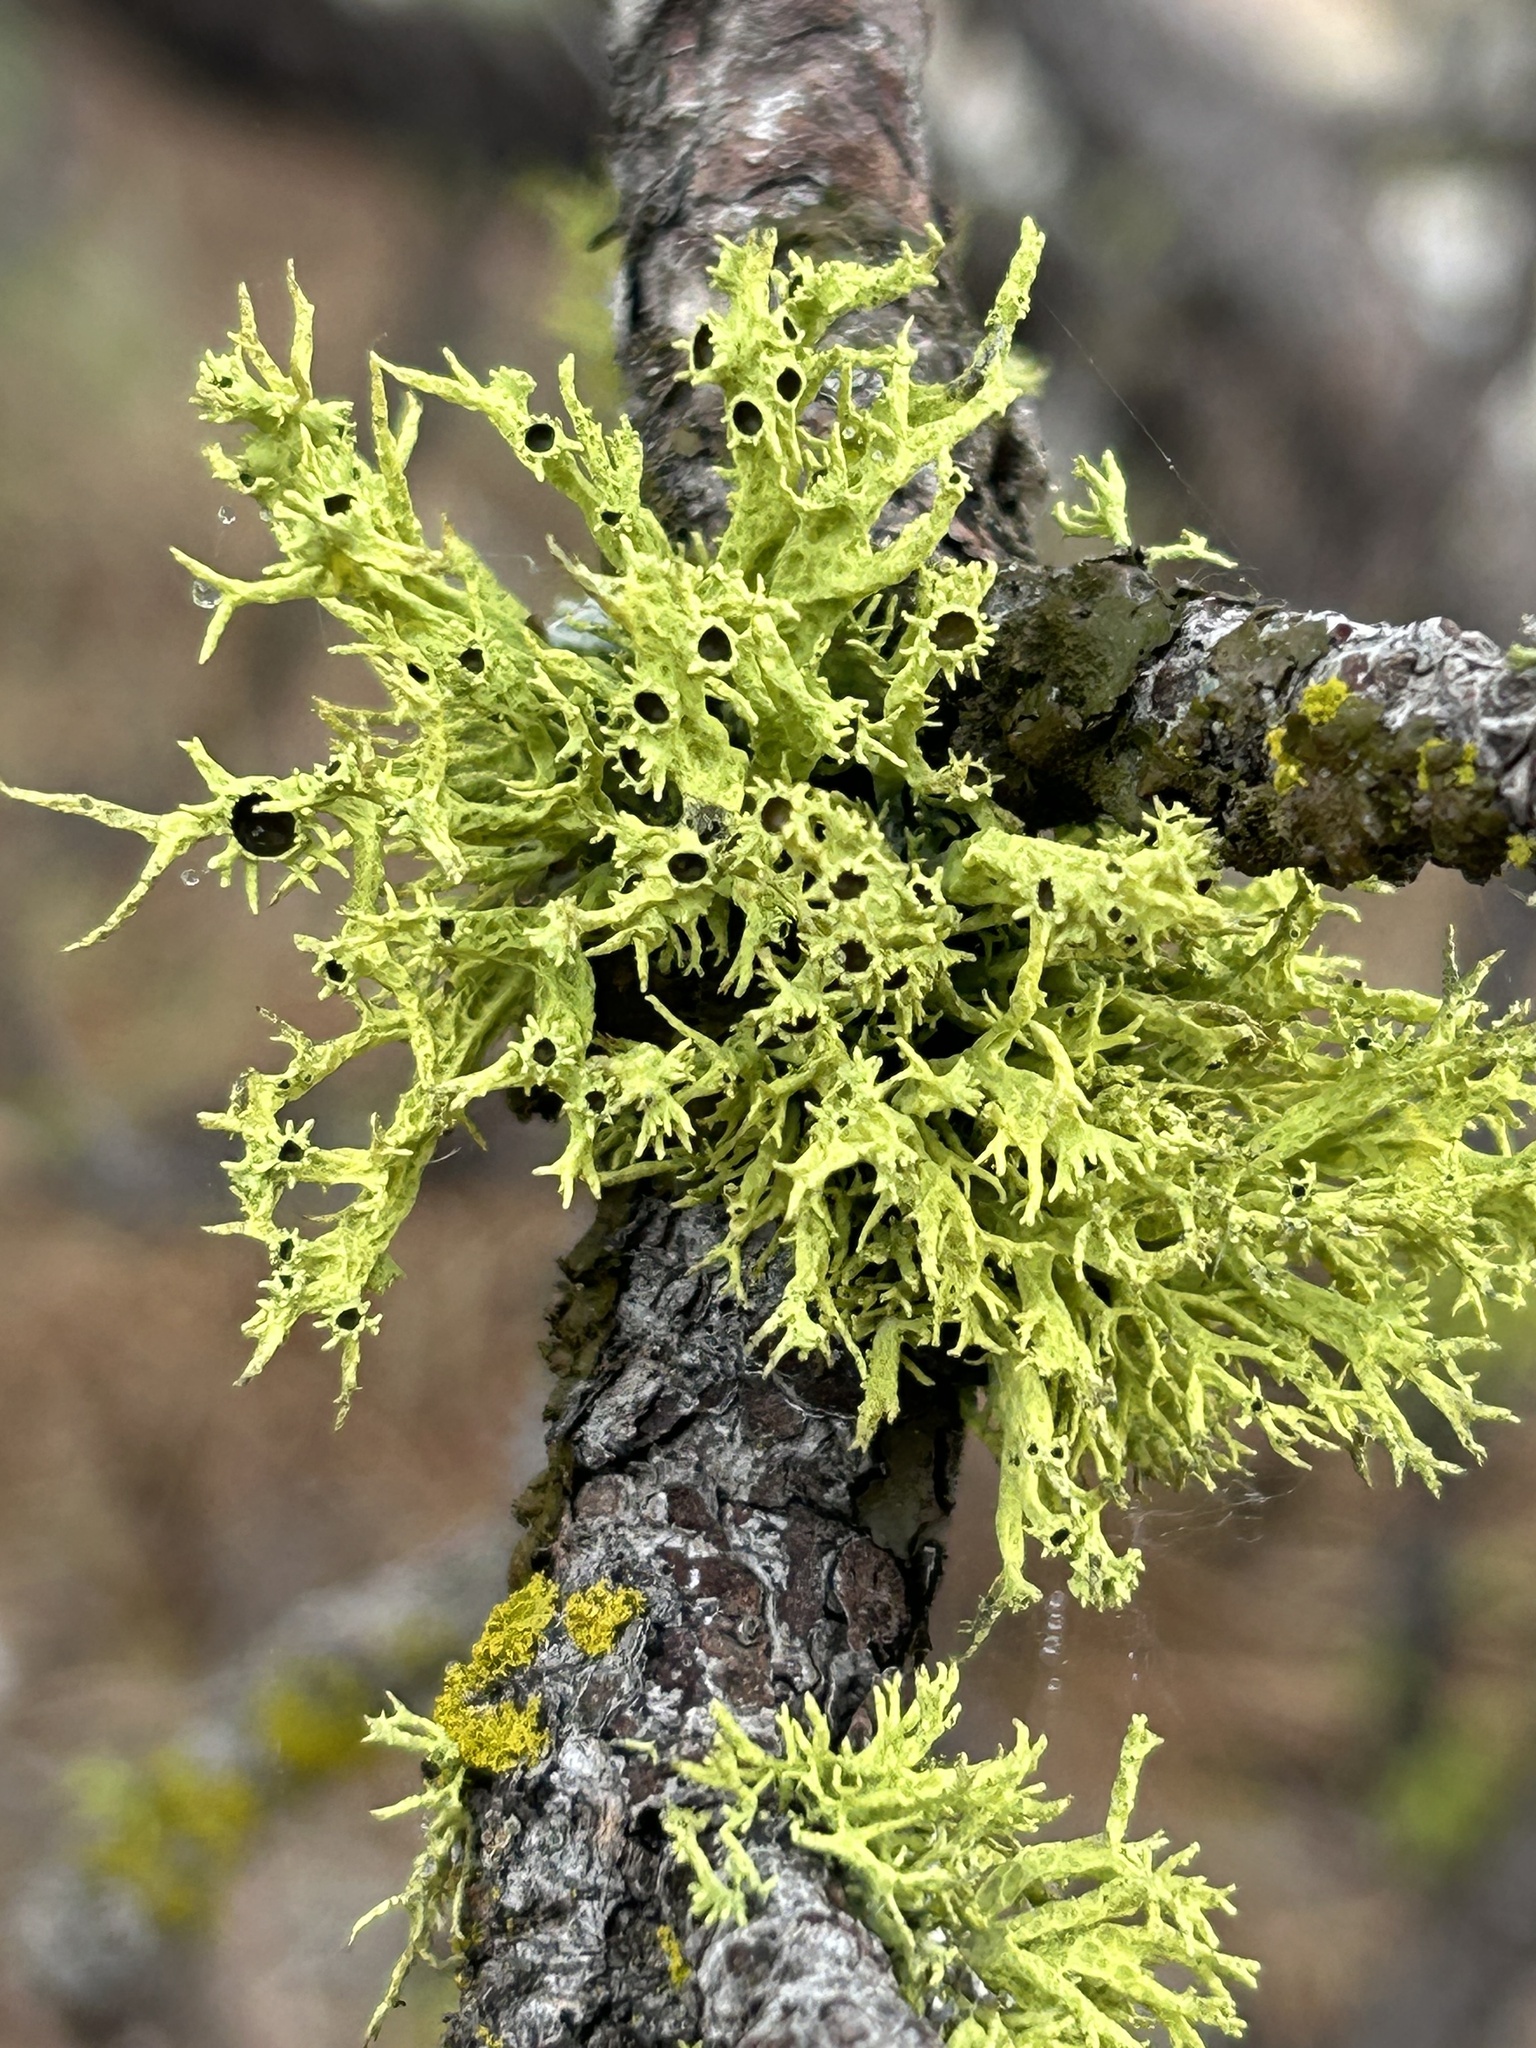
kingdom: Fungi
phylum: Ascomycota
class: Lecanoromycetes
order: Lecanorales
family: Parmeliaceae
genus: Letharia
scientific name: Letharia columbiana
